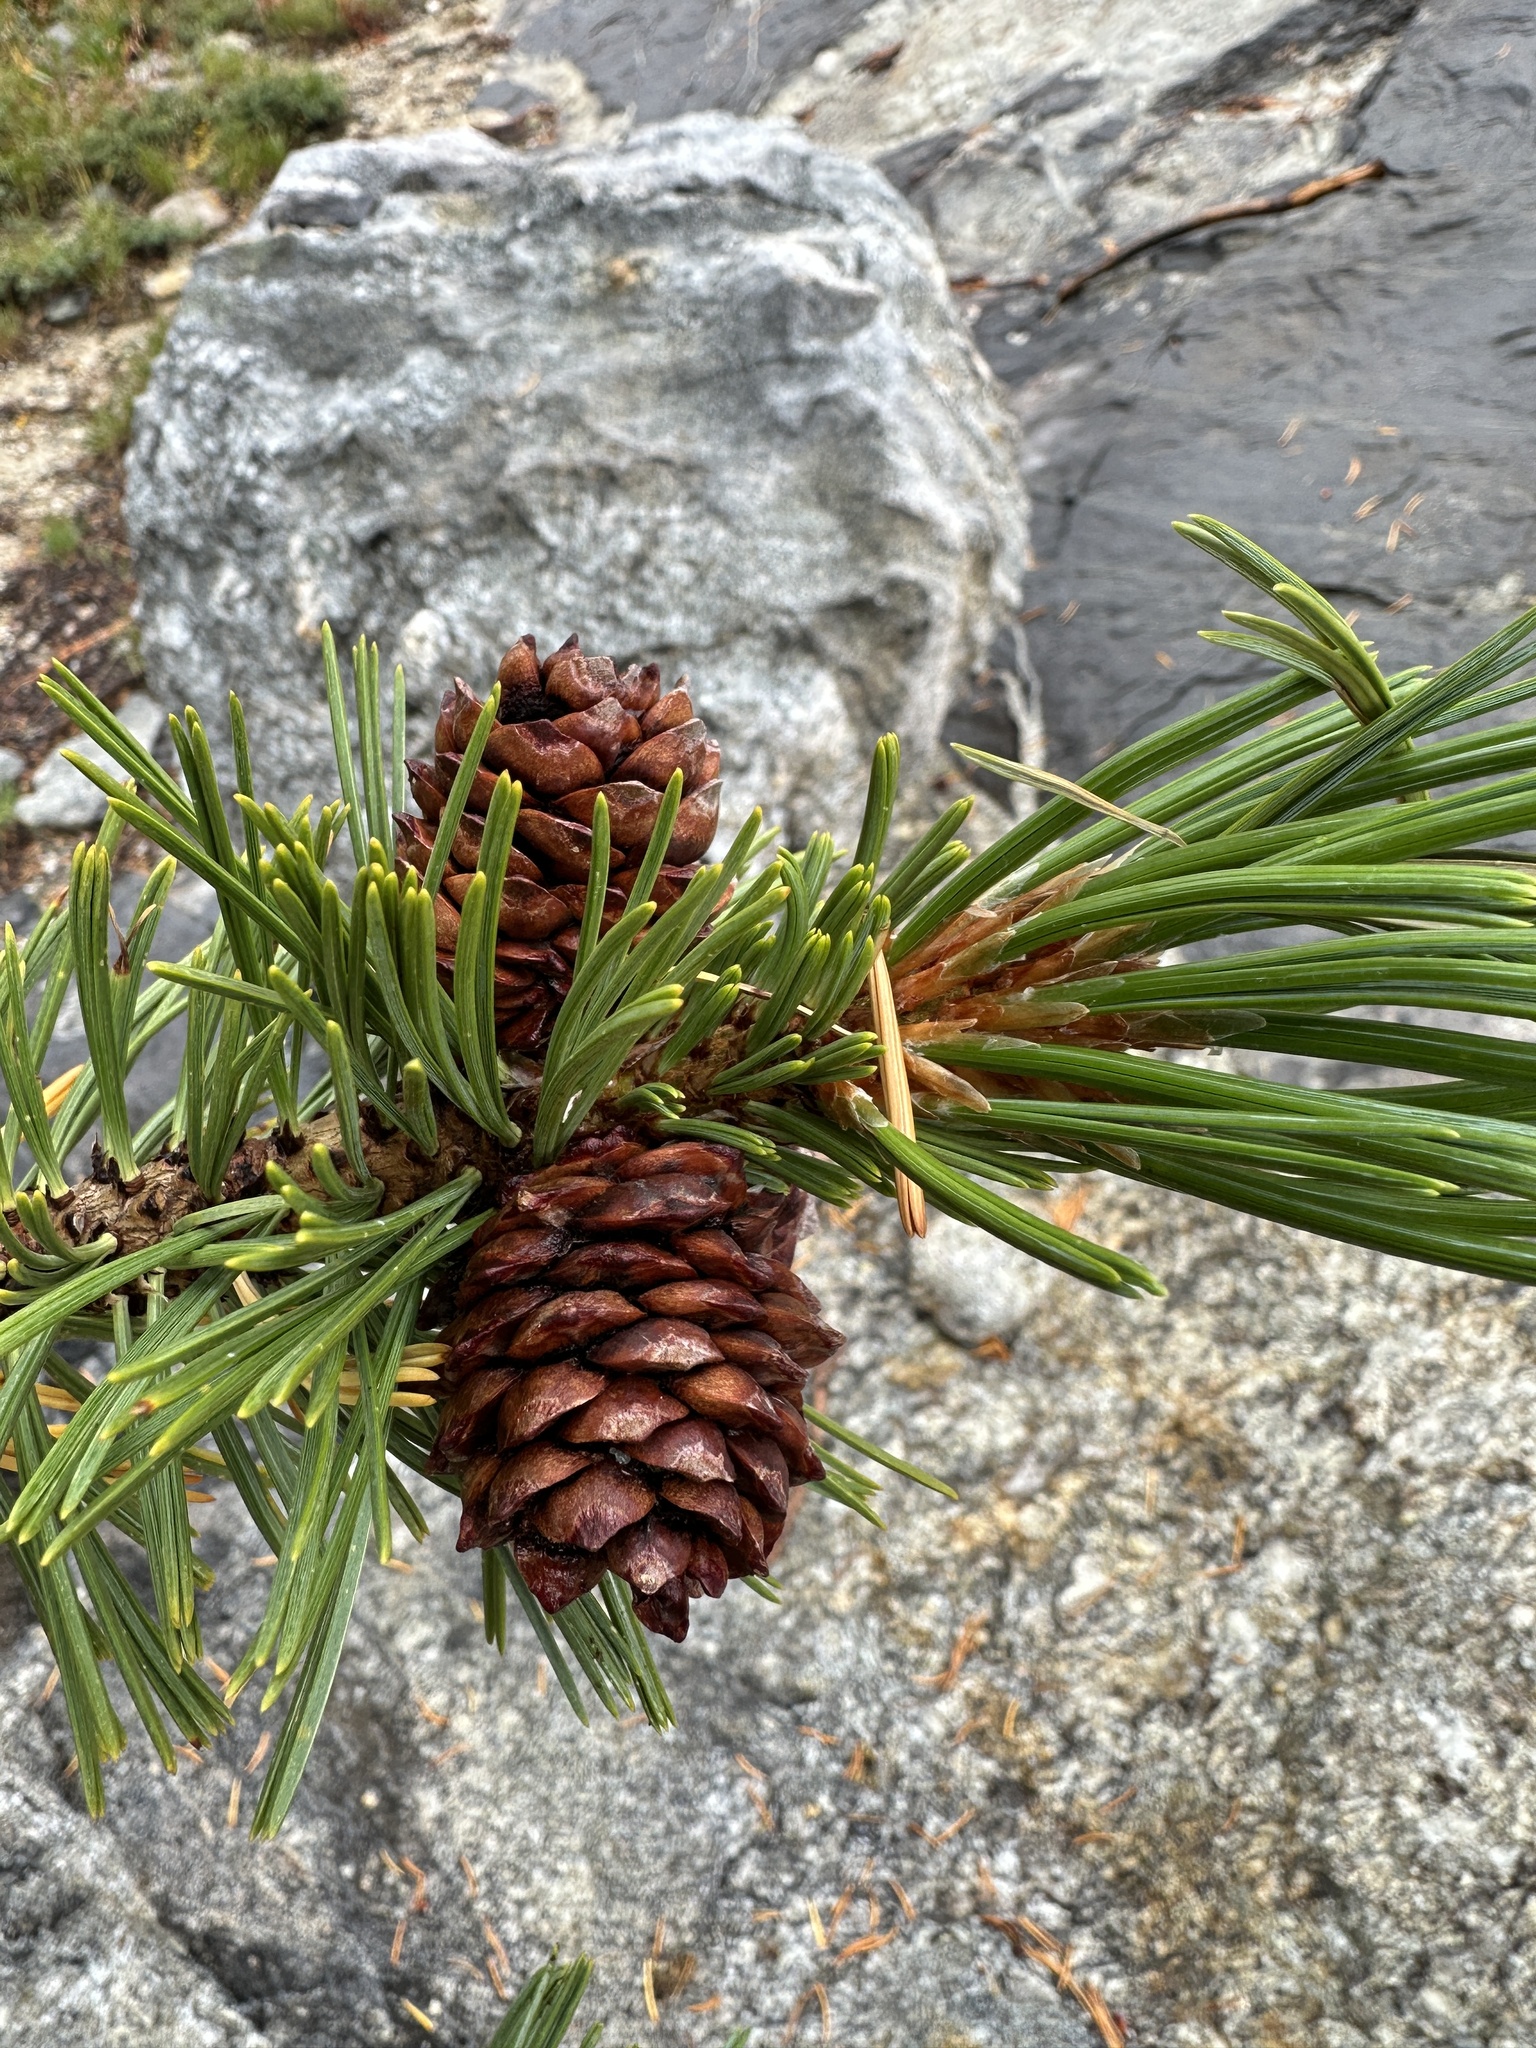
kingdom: Plantae
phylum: Tracheophyta
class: Pinopsida
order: Pinales
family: Pinaceae
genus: Pinus
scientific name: Pinus albicaulis
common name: Whitebark pine
